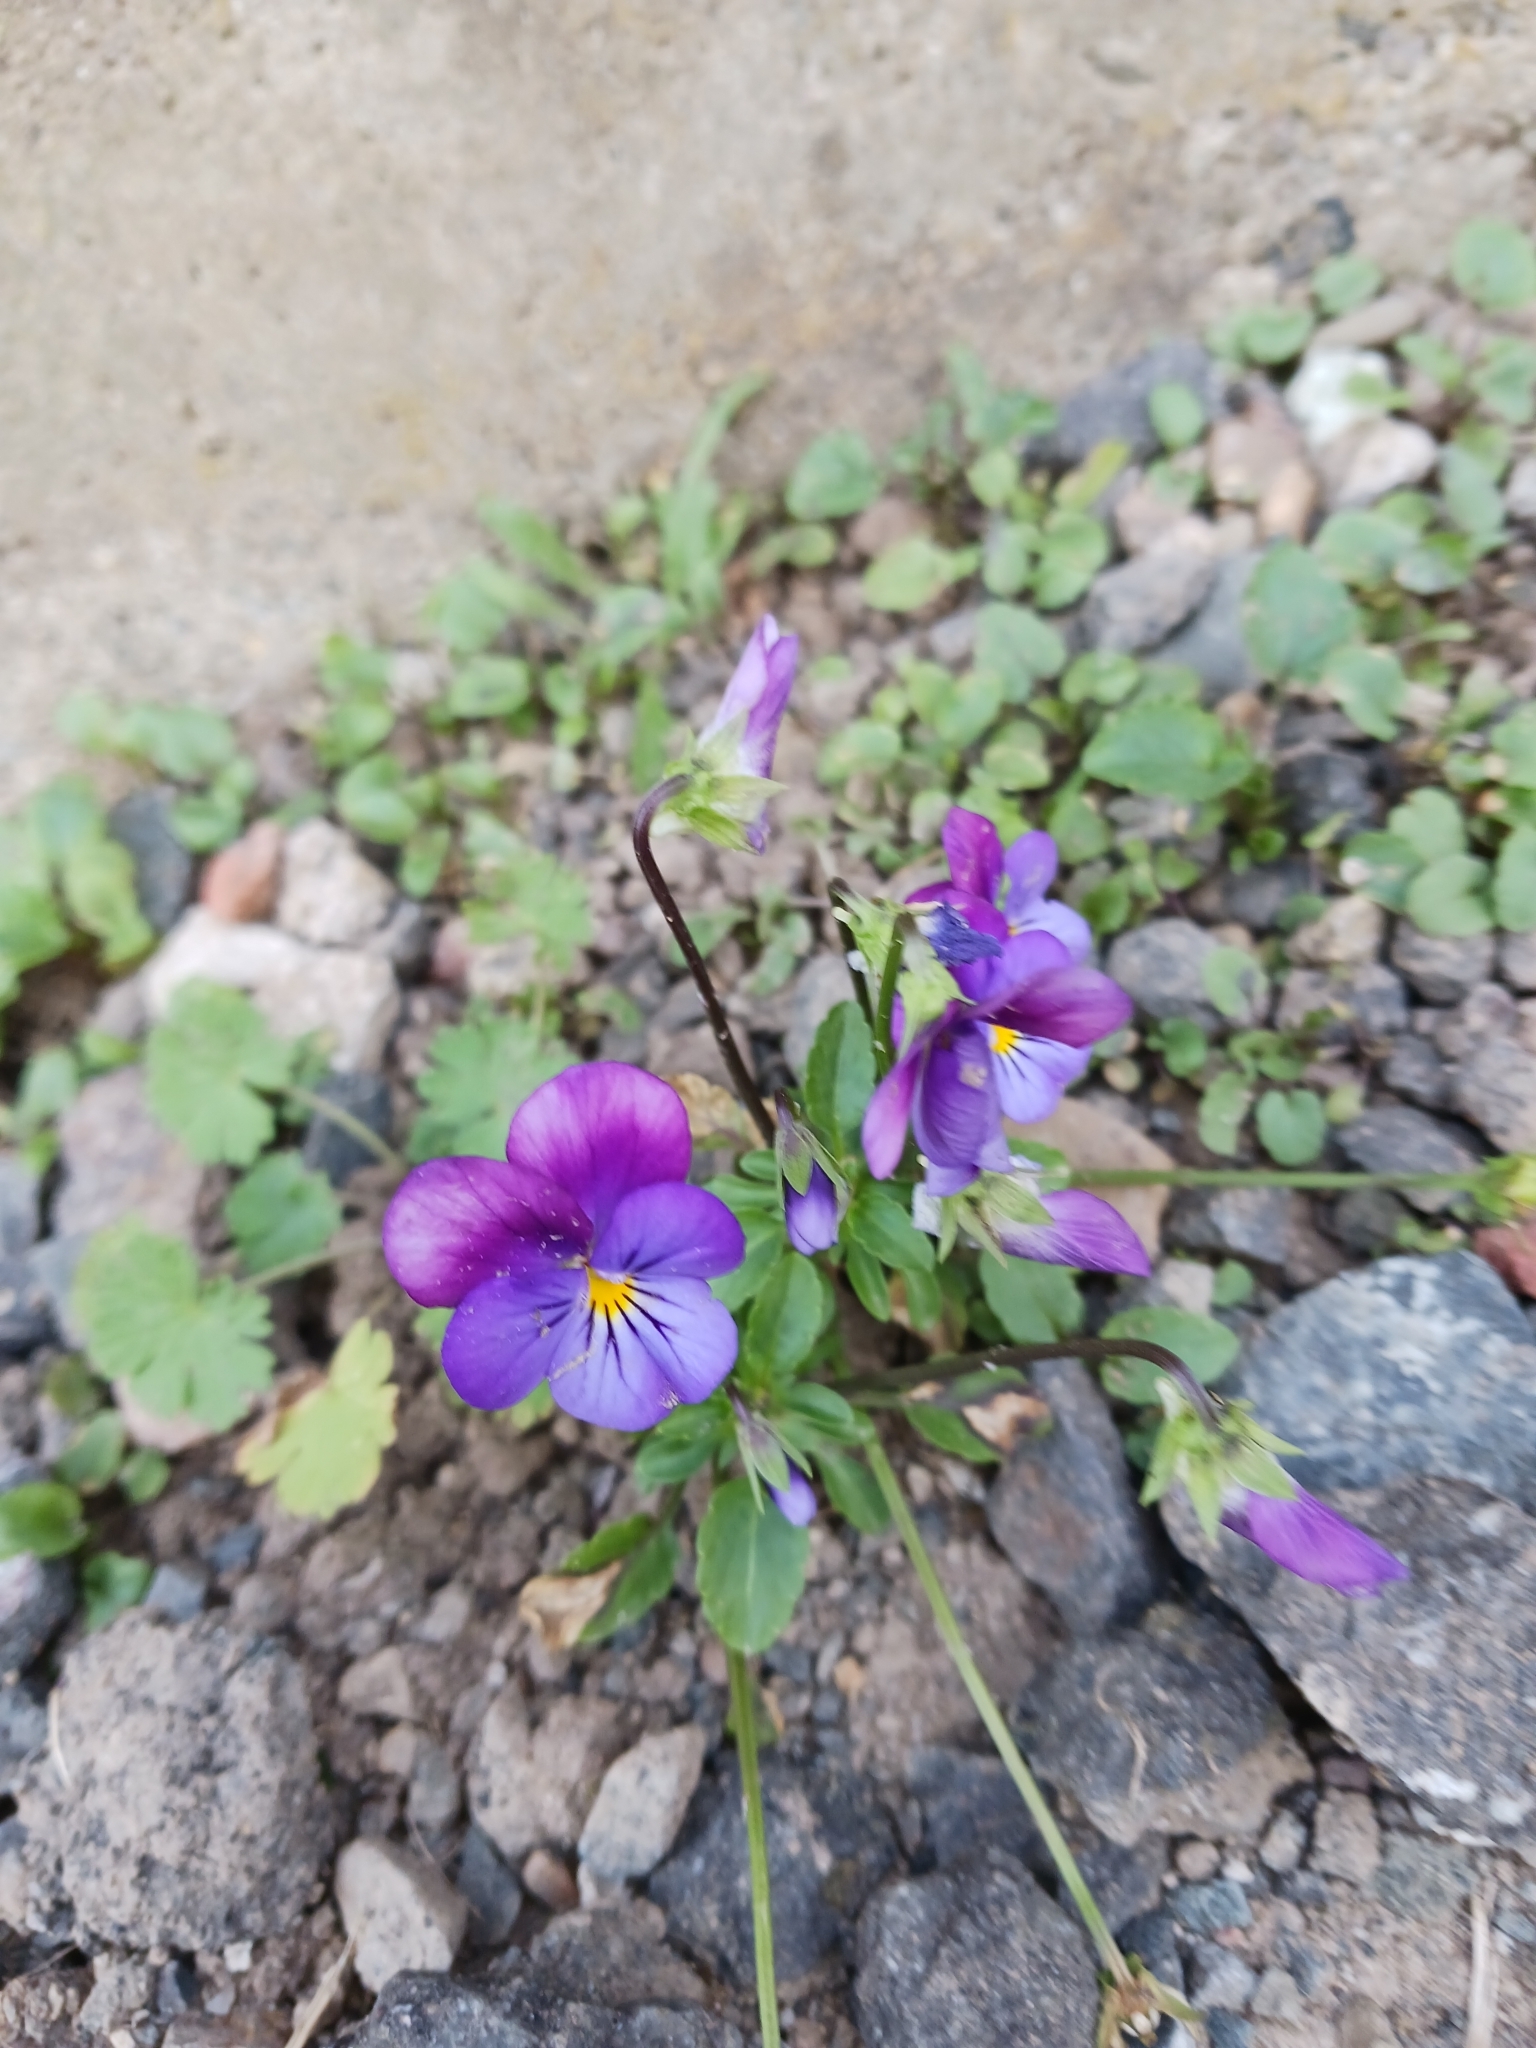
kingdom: Plantae
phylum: Tracheophyta
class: Magnoliopsida
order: Malpighiales
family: Violaceae
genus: Viola
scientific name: Viola williamsii
